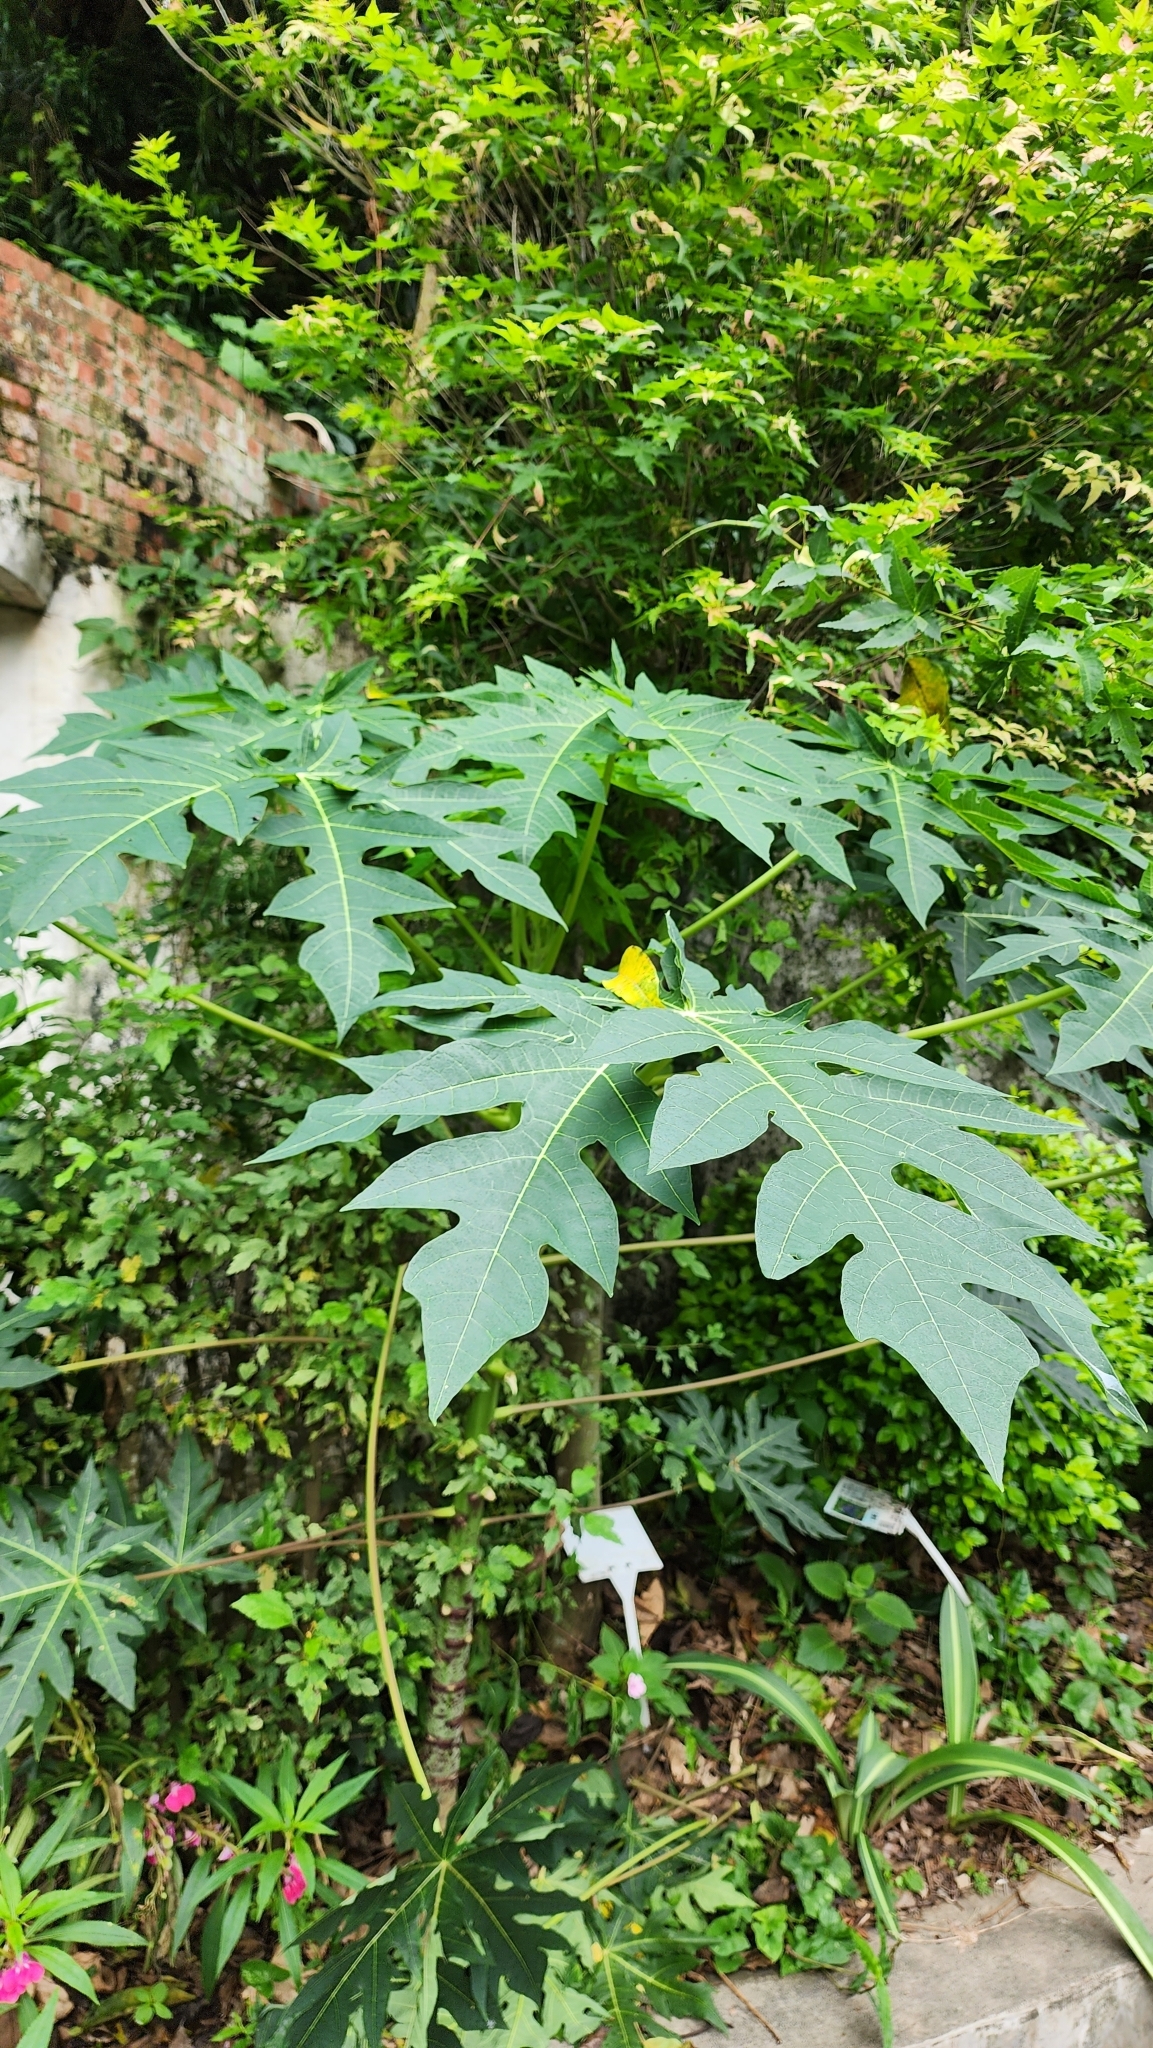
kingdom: Plantae
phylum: Tracheophyta
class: Magnoliopsida
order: Brassicales
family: Caricaceae
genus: Carica
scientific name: Carica papaya
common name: Papaya
